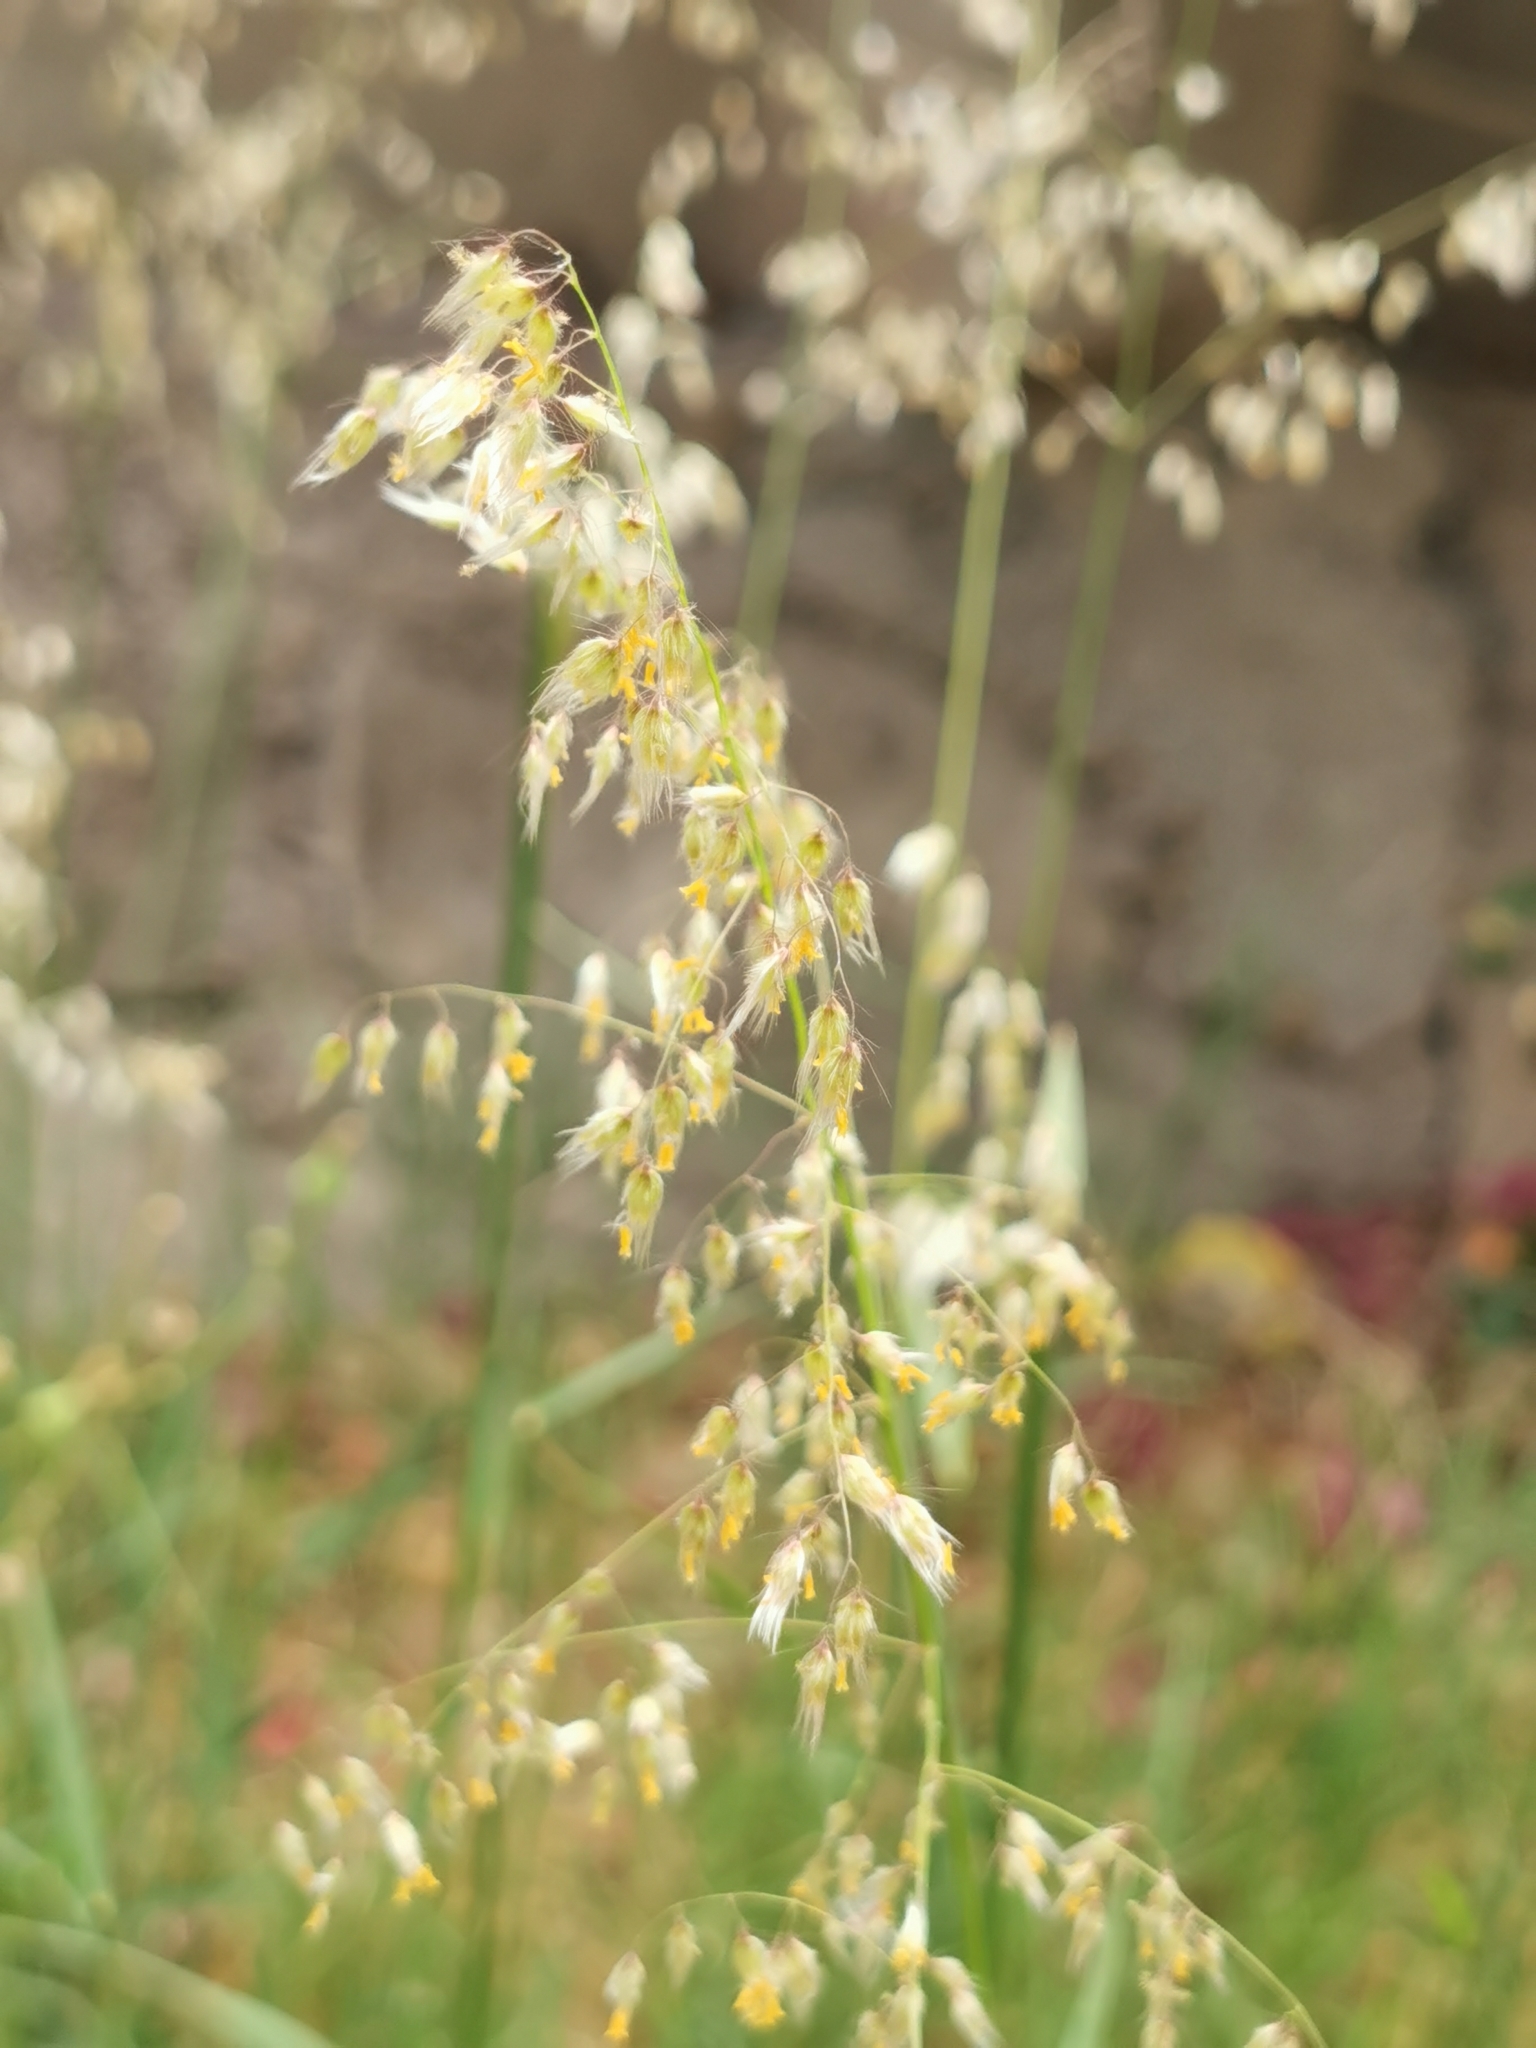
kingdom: Plantae
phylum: Tracheophyta
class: Liliopsida
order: Poales
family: Poaceae
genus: Melinis
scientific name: Melinis repens
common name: Rose natal grass
